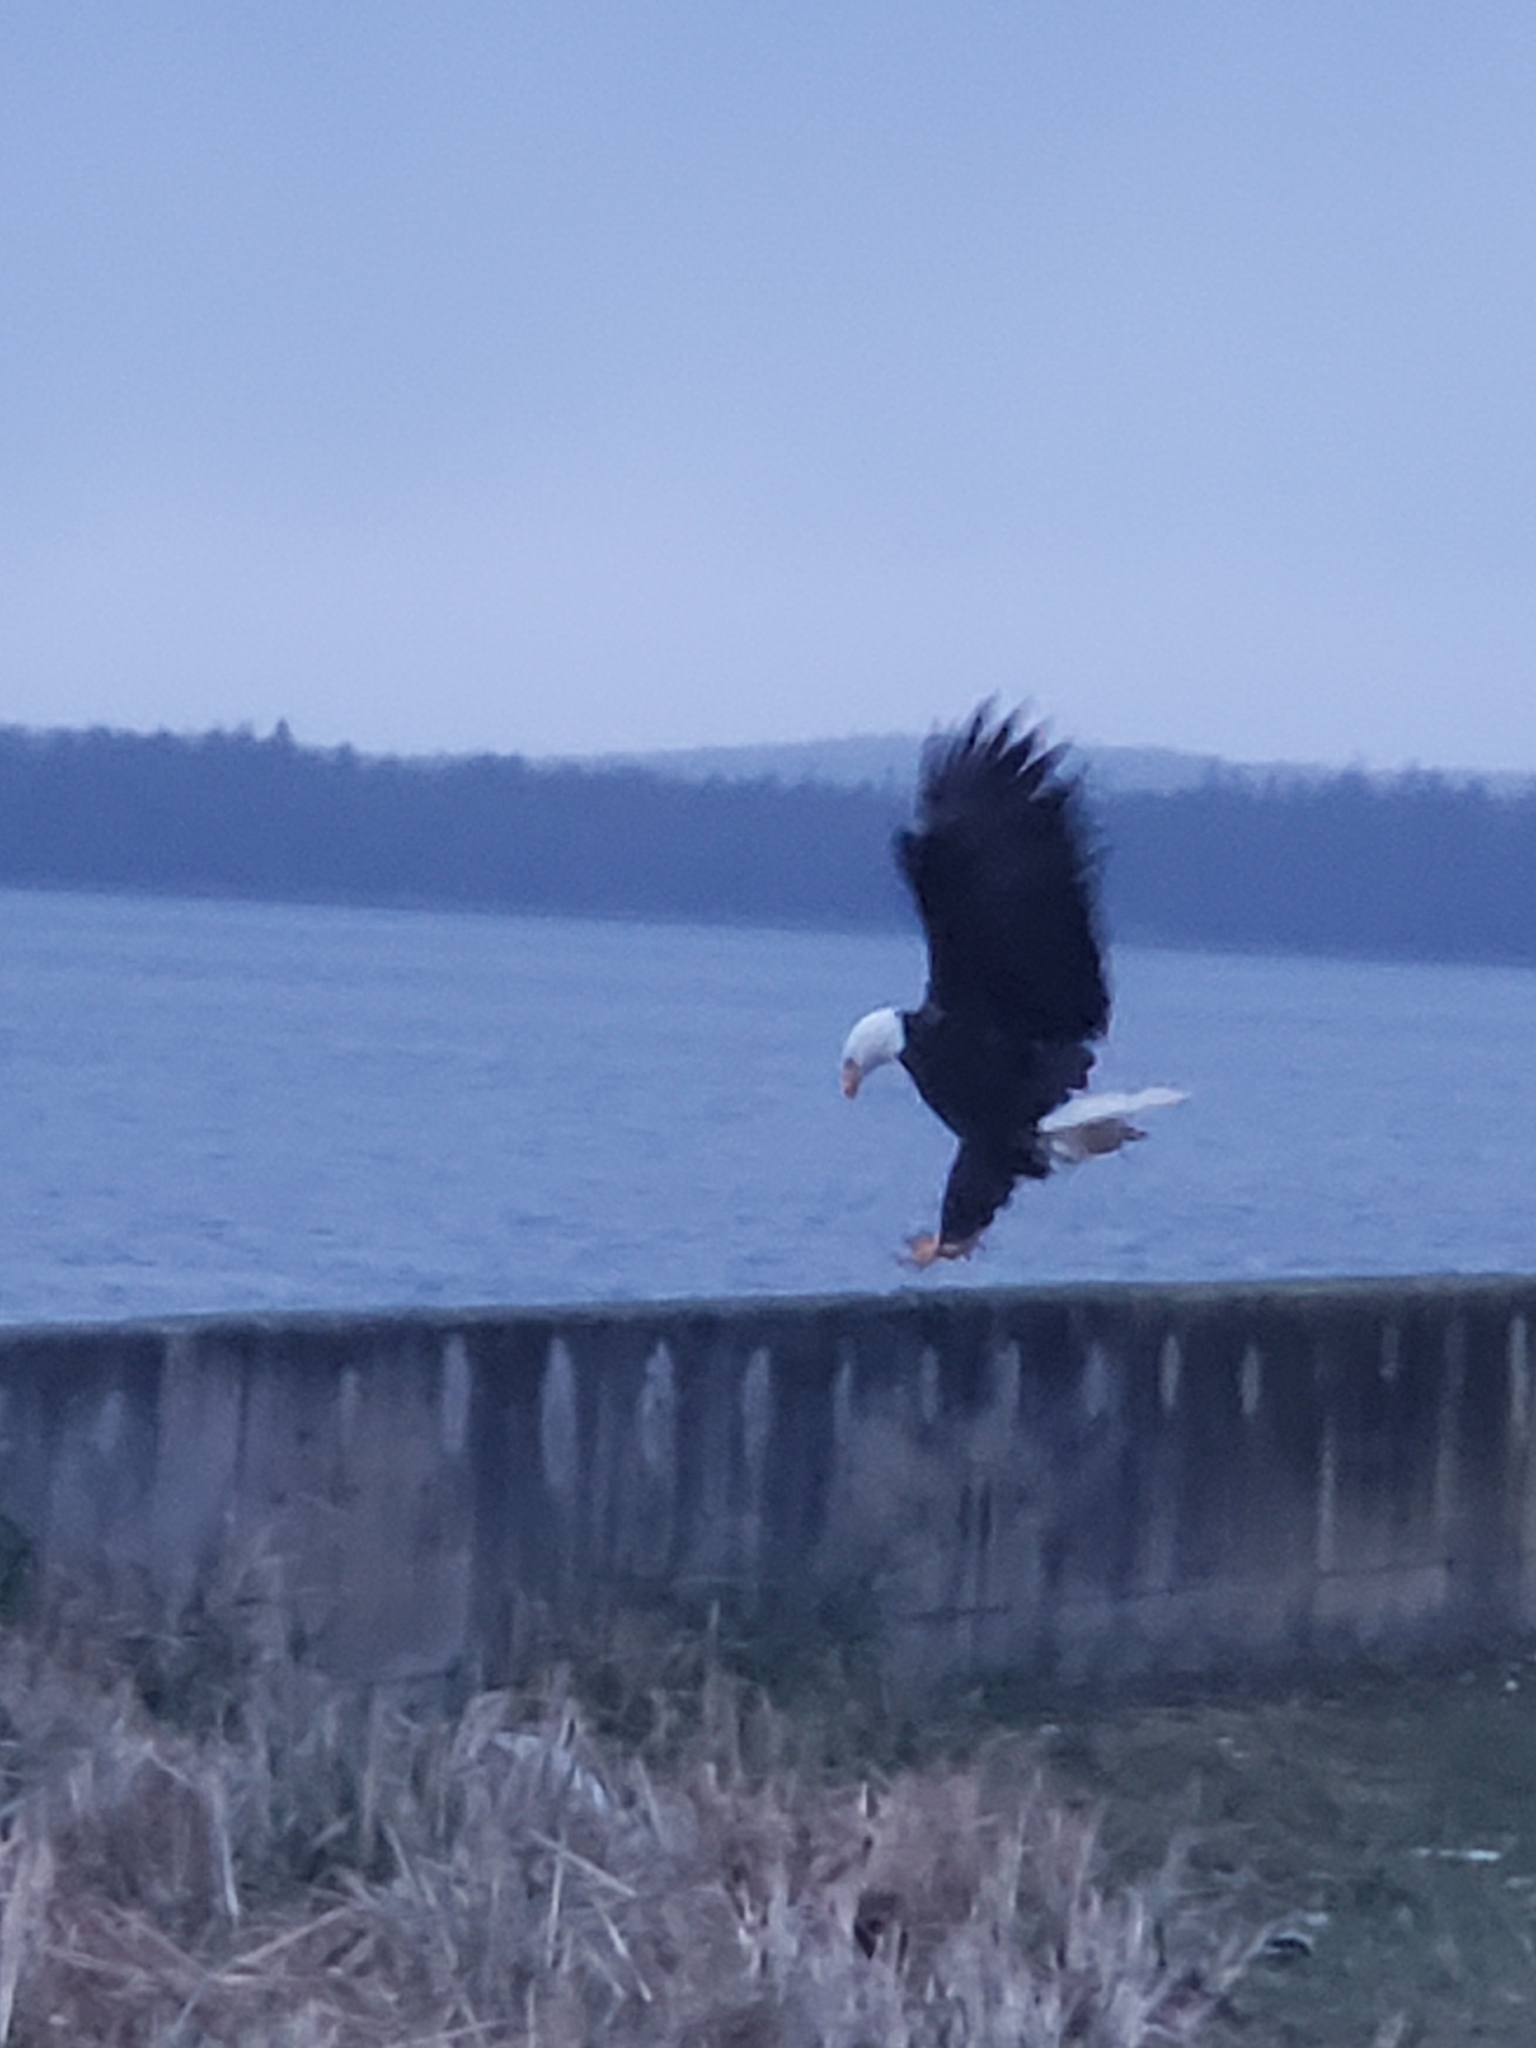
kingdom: Animalia
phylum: Chordata
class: Aves
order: Accipitriformes
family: Accipitridae
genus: Haliaeetus
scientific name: Haliaeetus leucocephalus
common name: Bald eagle
